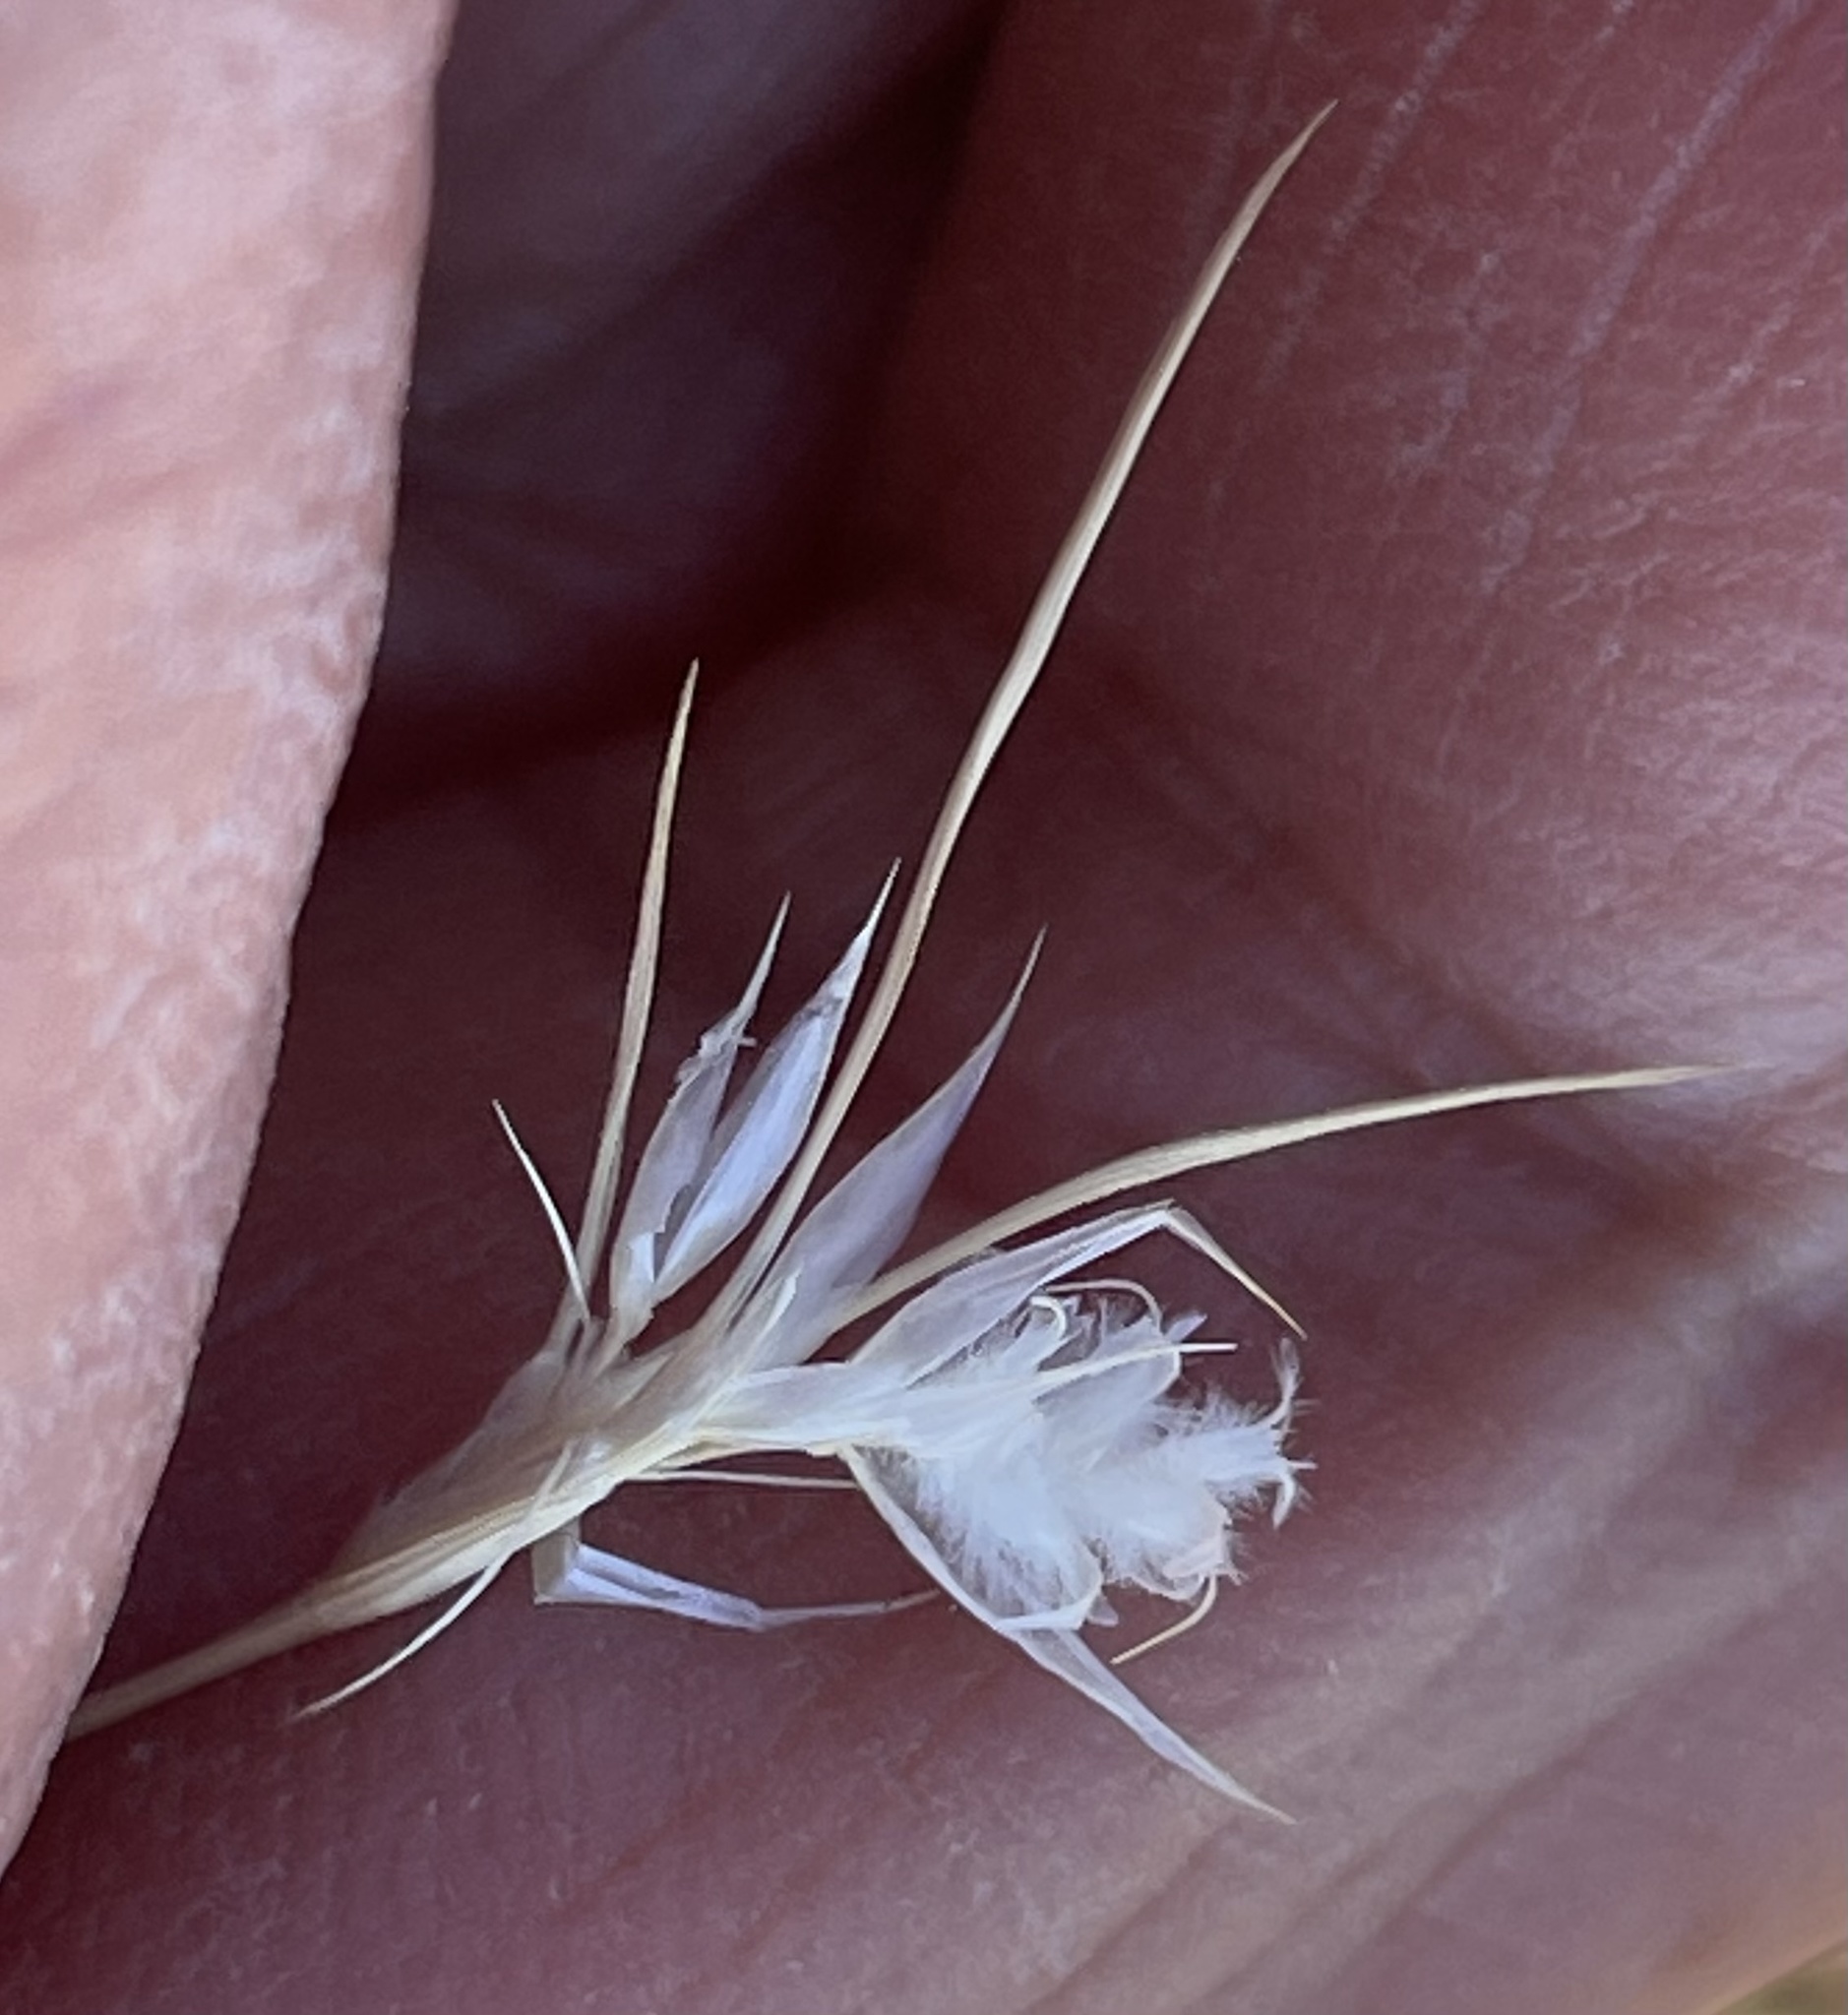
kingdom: Plantae
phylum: Tracheophyta
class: Liliopsida
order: Poales
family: Poaceae
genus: Dasyochloa
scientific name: Dasyochloa pulchella
